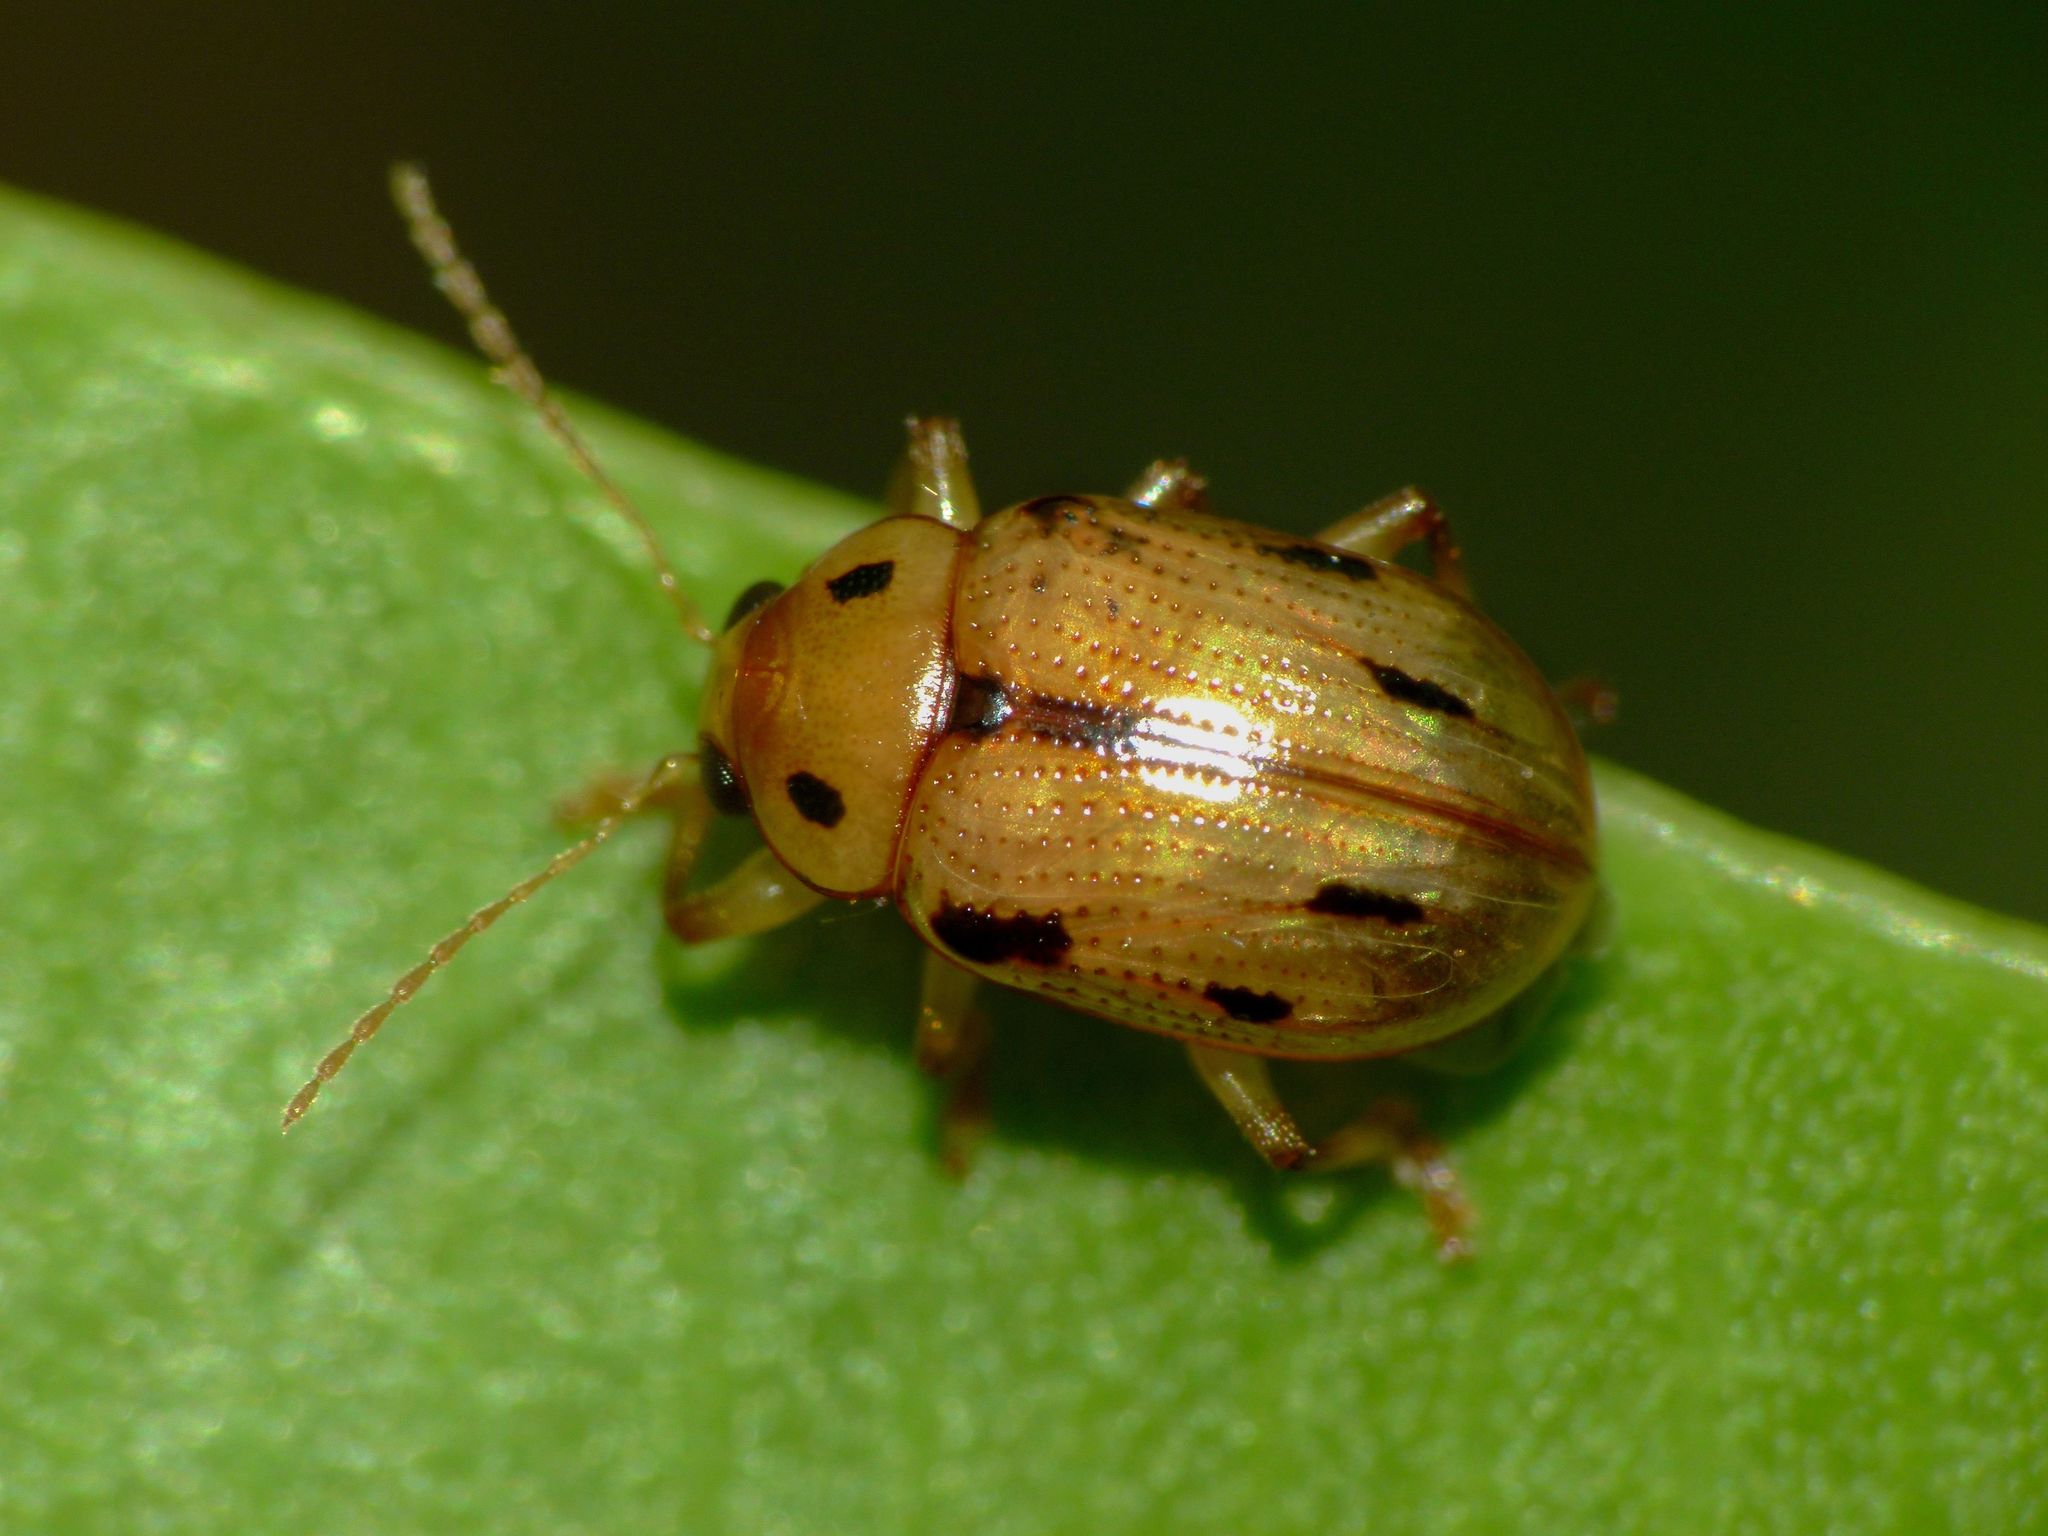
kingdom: Animalia
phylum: Arthropoda
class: Insecta
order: Coleoptera
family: Chrysomelidae
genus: Rhyparida
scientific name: Rhyparida
